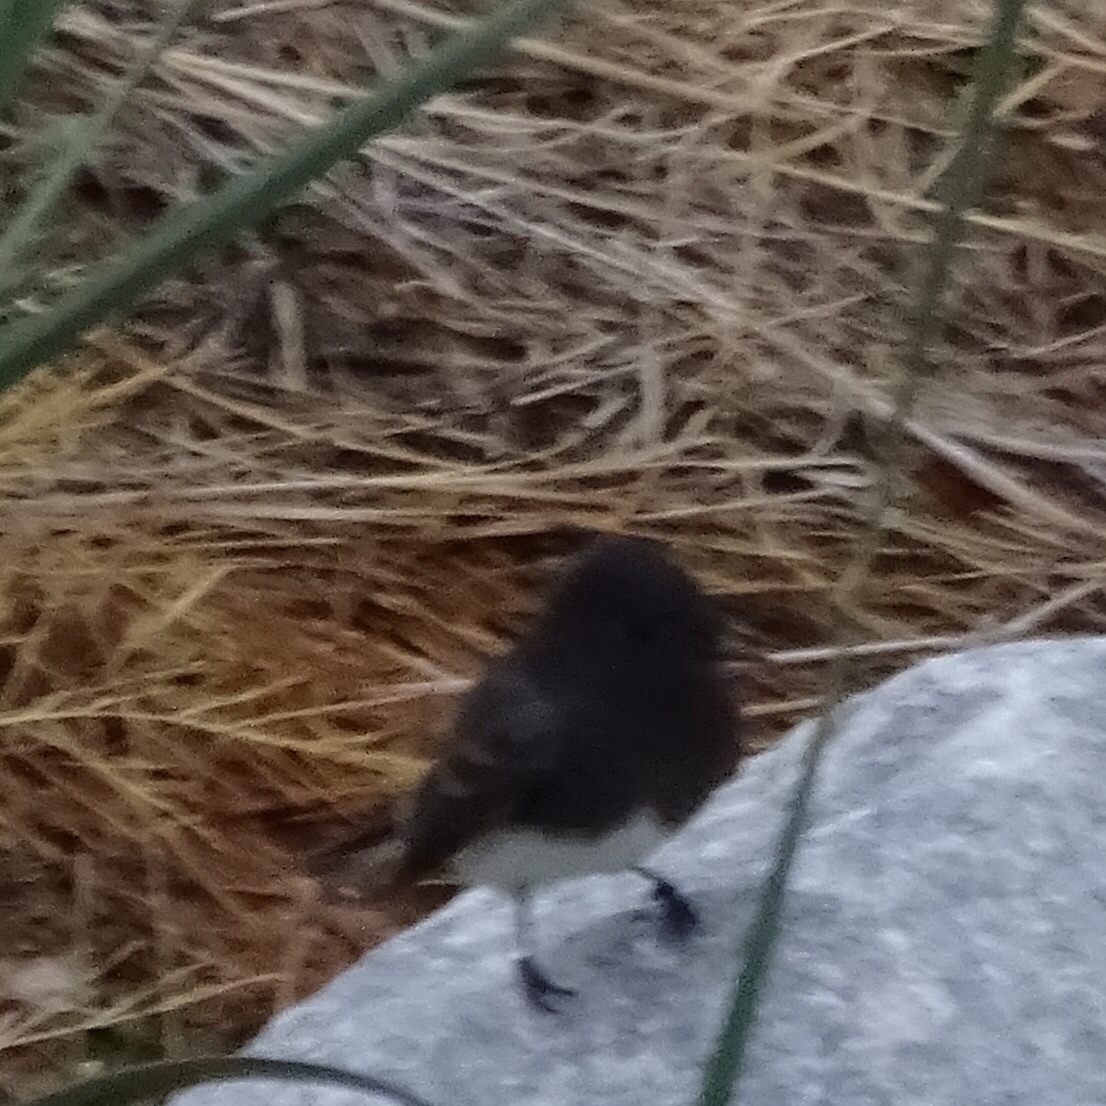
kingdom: Animalia
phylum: Chordata
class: Aves
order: Passeriformes
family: Tyrannidae
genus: Sayornis
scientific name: Sayornis nigricans
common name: Black phoebe
